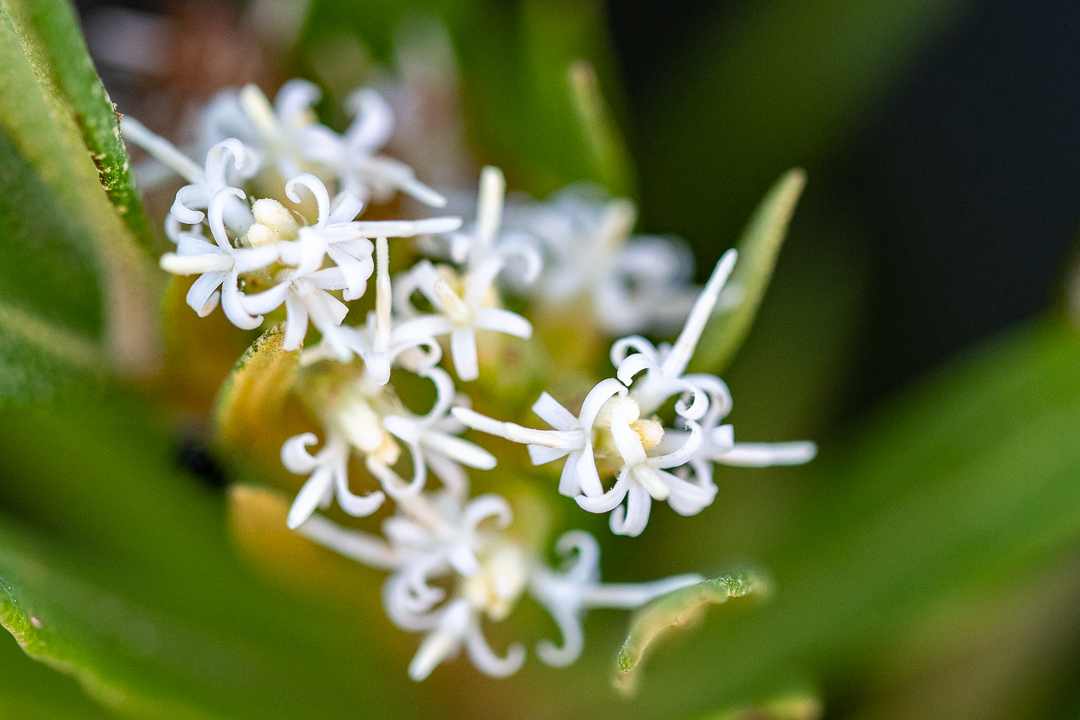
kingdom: Plantae
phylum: Tracheophyta
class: Magnoliopsida
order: Asterales
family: Asteraceae
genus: Brachylaena
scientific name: Brachylaena neriifolia
